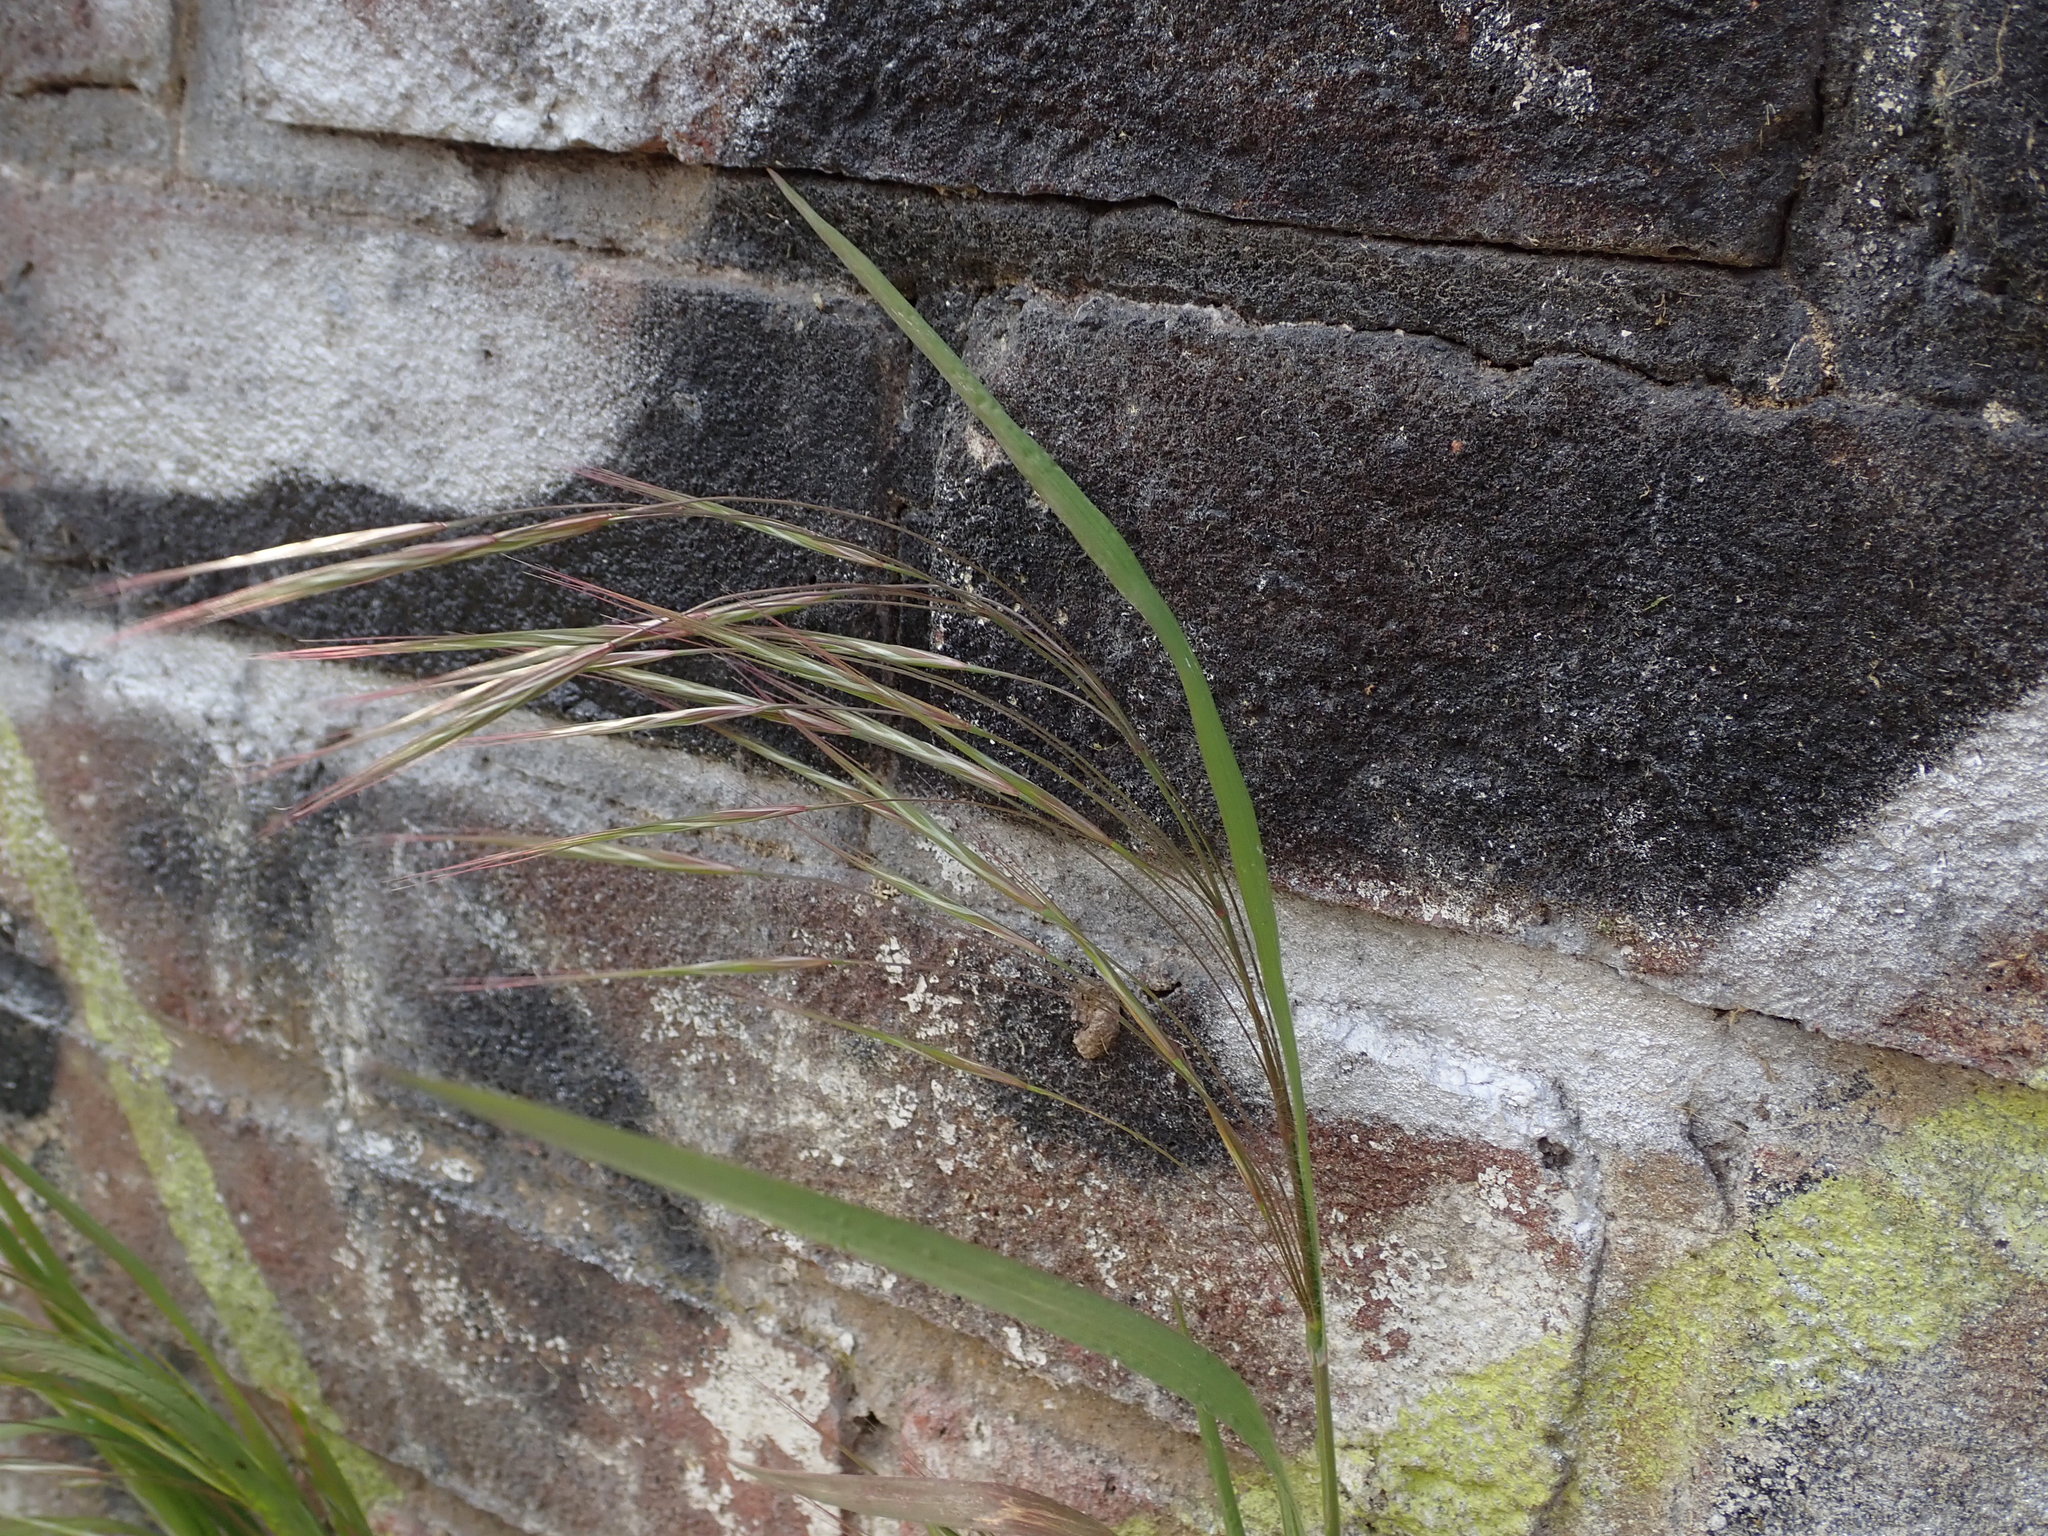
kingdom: Plantae
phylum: Tracheophyta
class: Liliopsida
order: Poales
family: Poaceae
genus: Bromus
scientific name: Bromus sterilis
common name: Poverty brome
